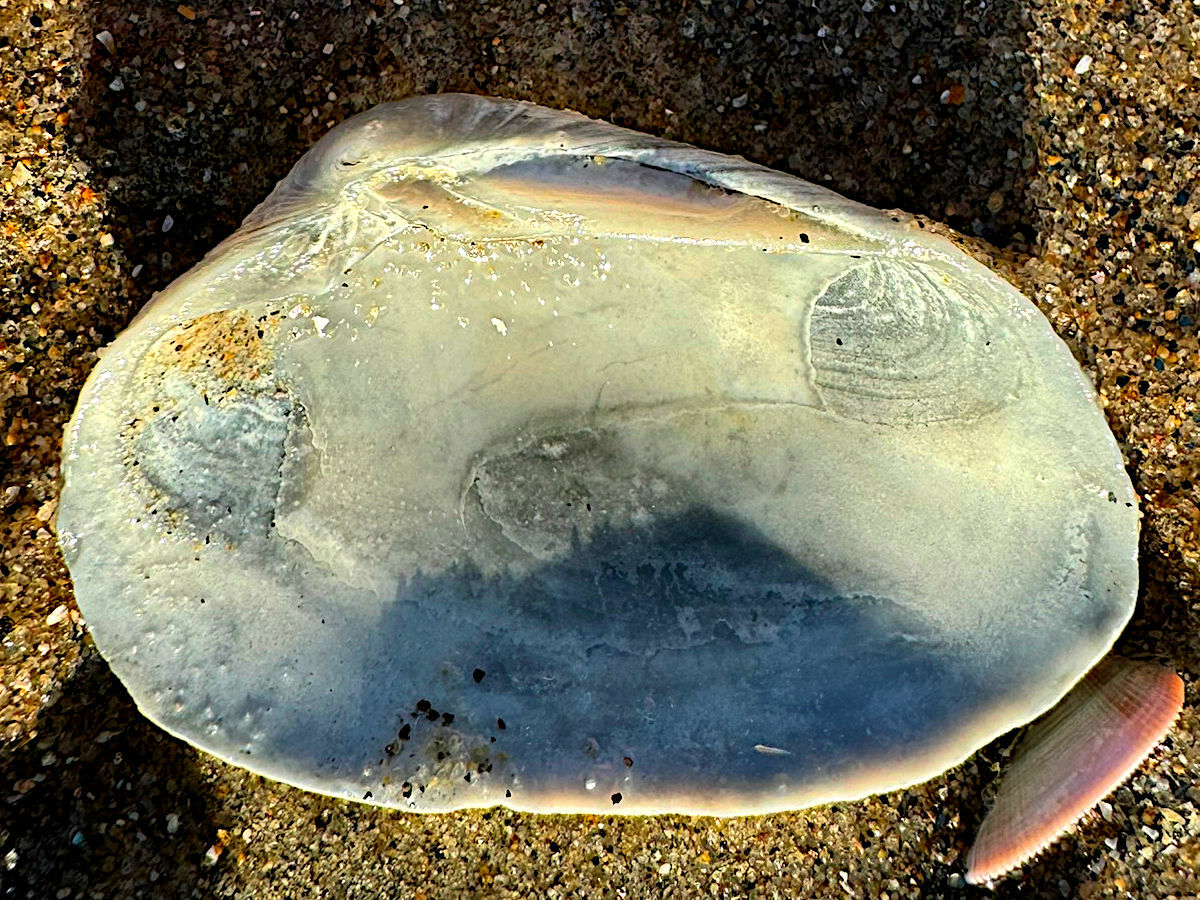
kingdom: Animalia
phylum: Mollusca
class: Bivalvia
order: Venerida
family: Veneridae
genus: Saxidomus
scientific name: Saxidomus nuttalli
